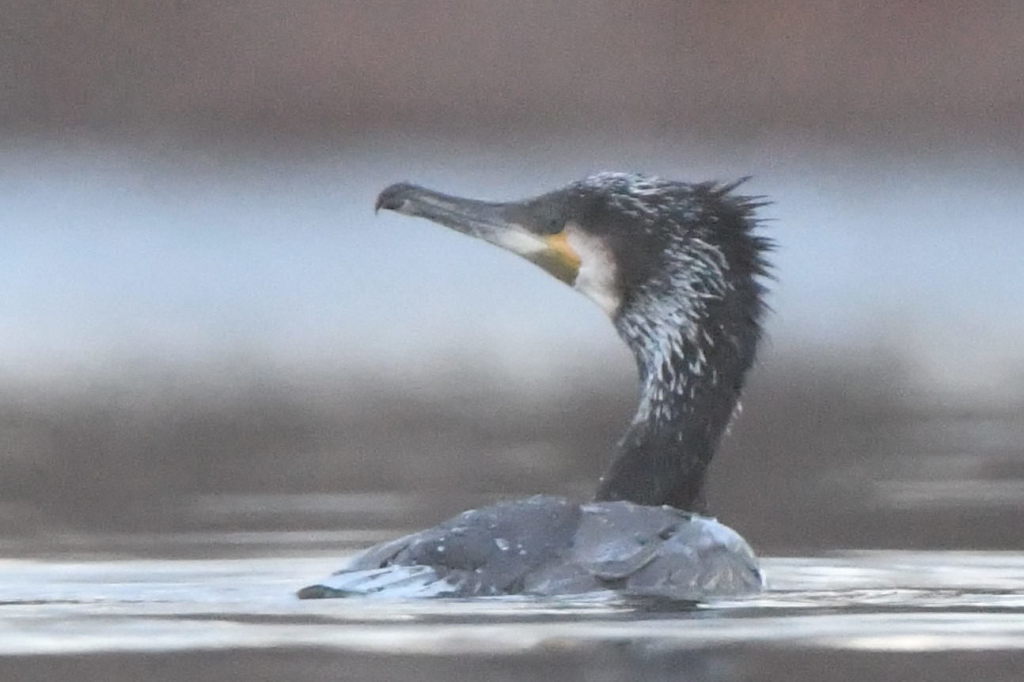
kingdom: Animalia
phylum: Chordata
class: Aves
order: Suliformes
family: Phalacrocoracidae
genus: Phalacrocorax
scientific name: Phalacrocorax carbo
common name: Great cormorant
